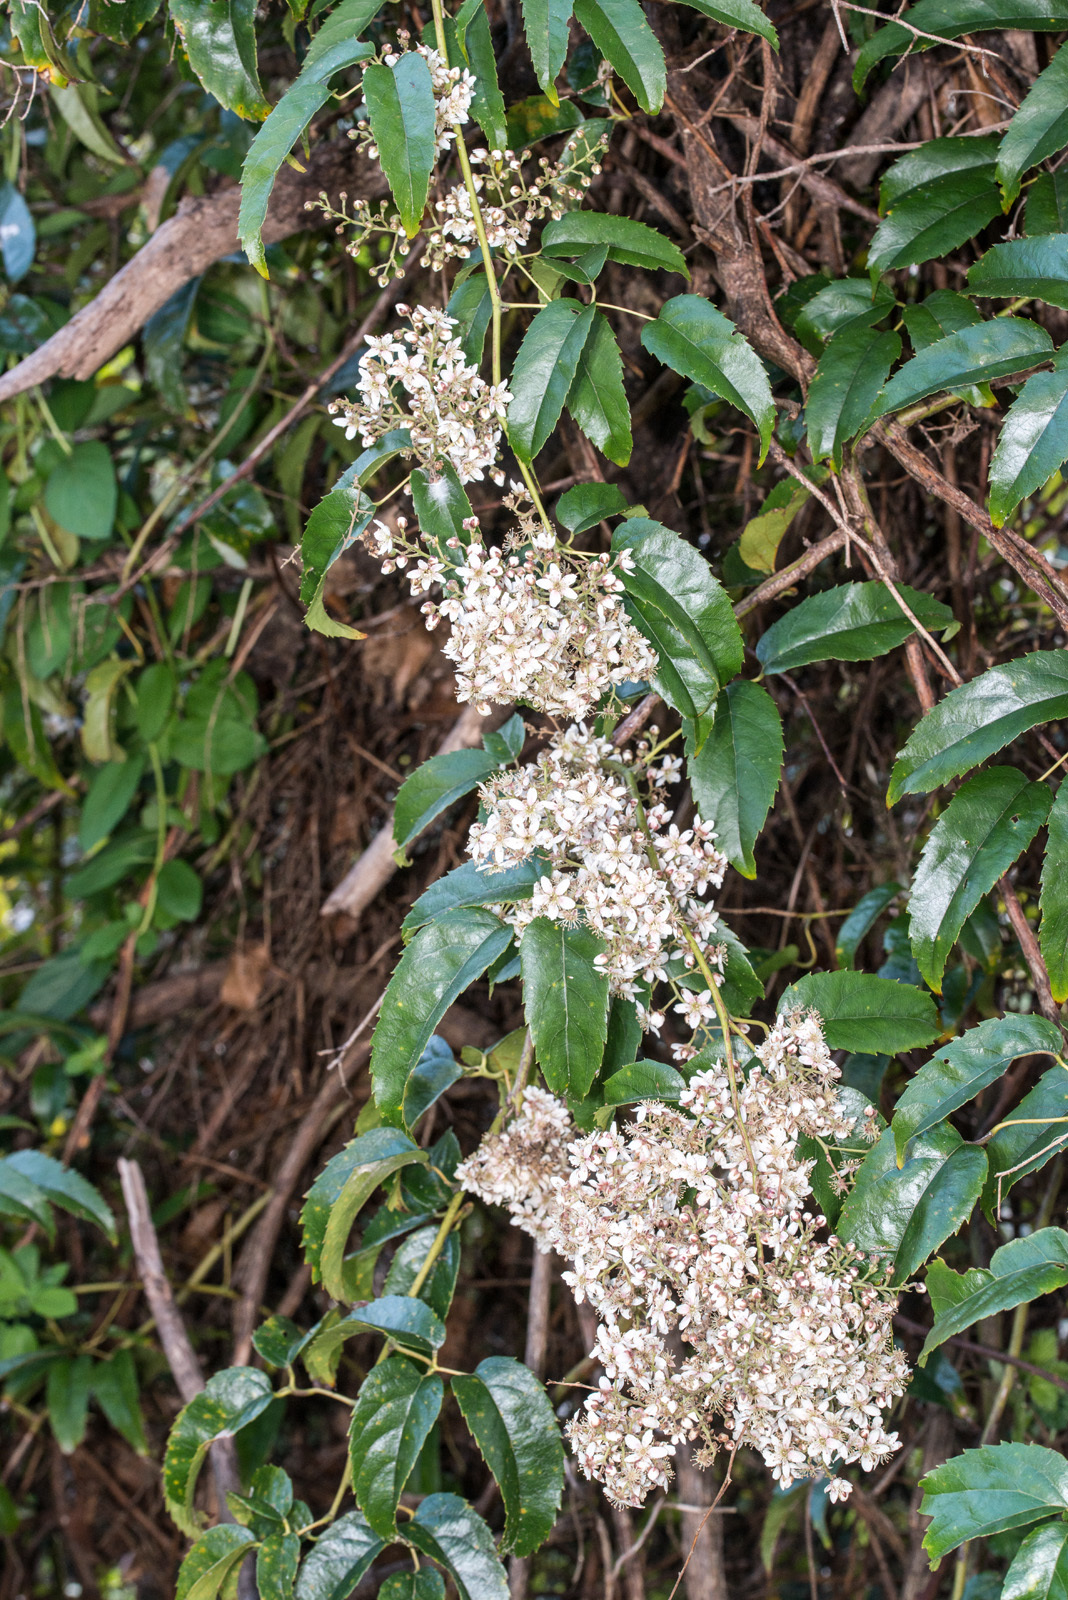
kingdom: Plantae
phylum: Tracheophyta
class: Magnoliopsida
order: Rosales
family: Rosaceae
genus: Rubus
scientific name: Rubus cissoides
